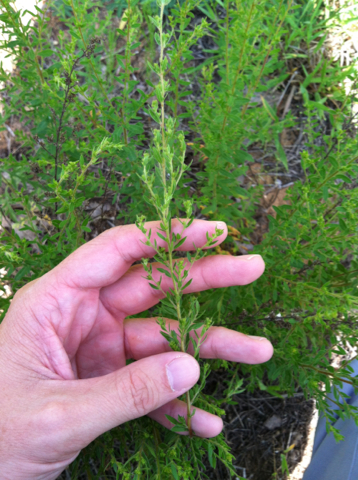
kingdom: Plantae
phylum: Tracheophyta
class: Magnoliopsida
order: Malvales
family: Cistaceae
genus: Lechea
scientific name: Lechea mucronata
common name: Hairy pinweed
